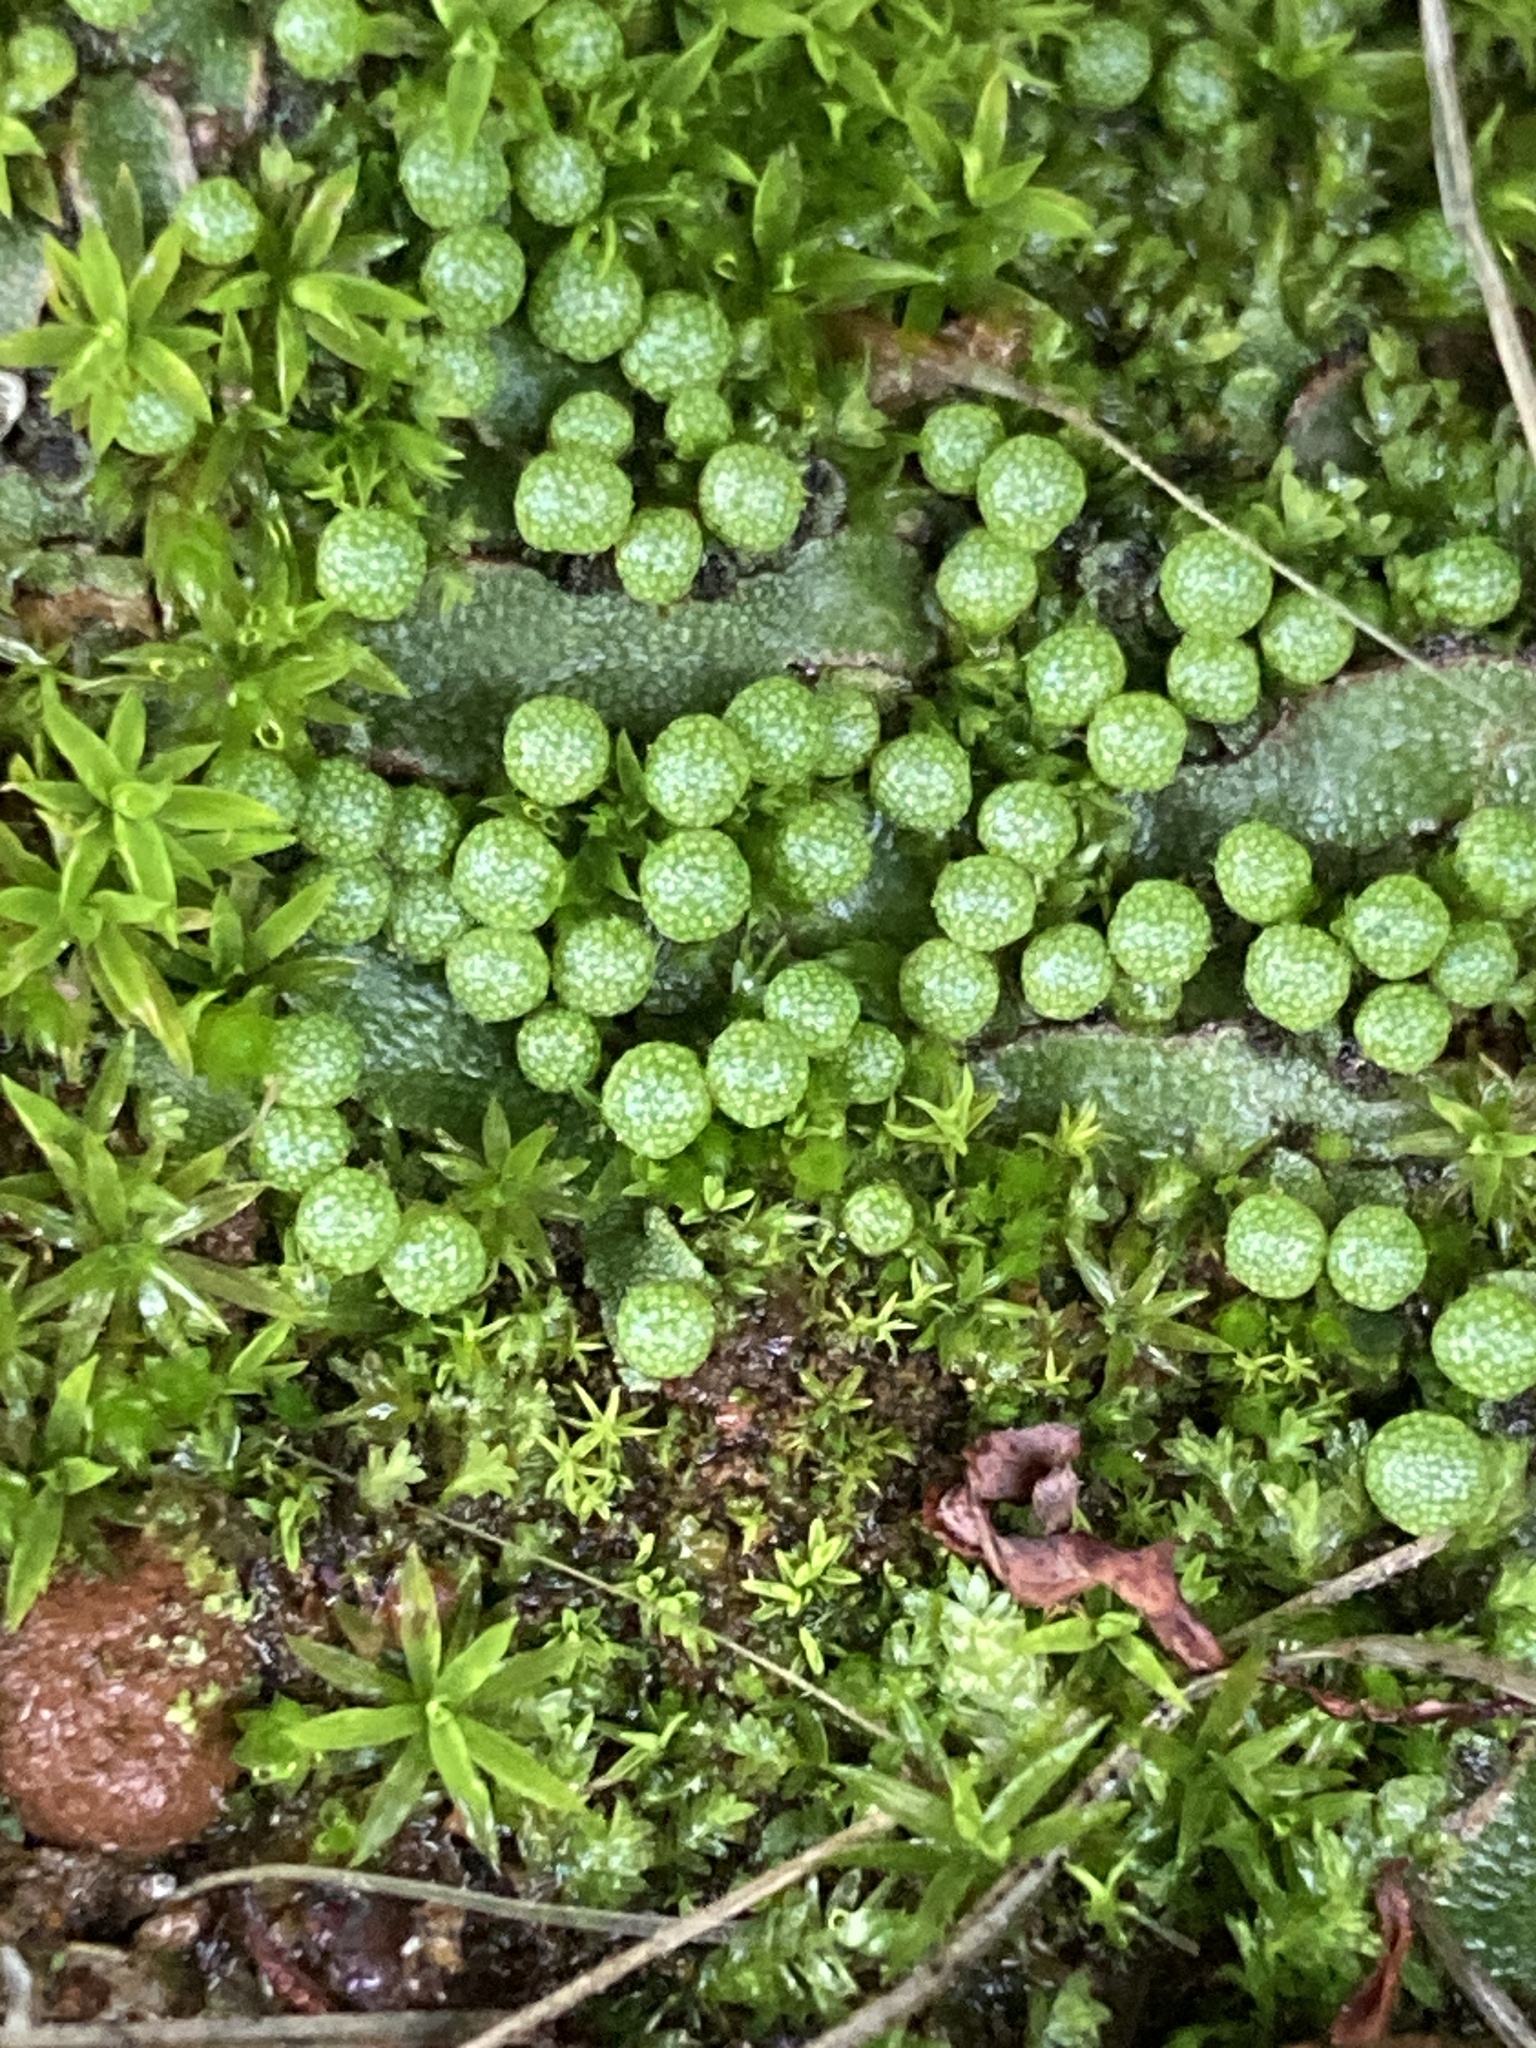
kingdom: Plantae
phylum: Marchantiophyta
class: Marchantiopsida
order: Marchantiales
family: Aytoniaceae
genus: Asterella
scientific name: Asterella bolanderi
